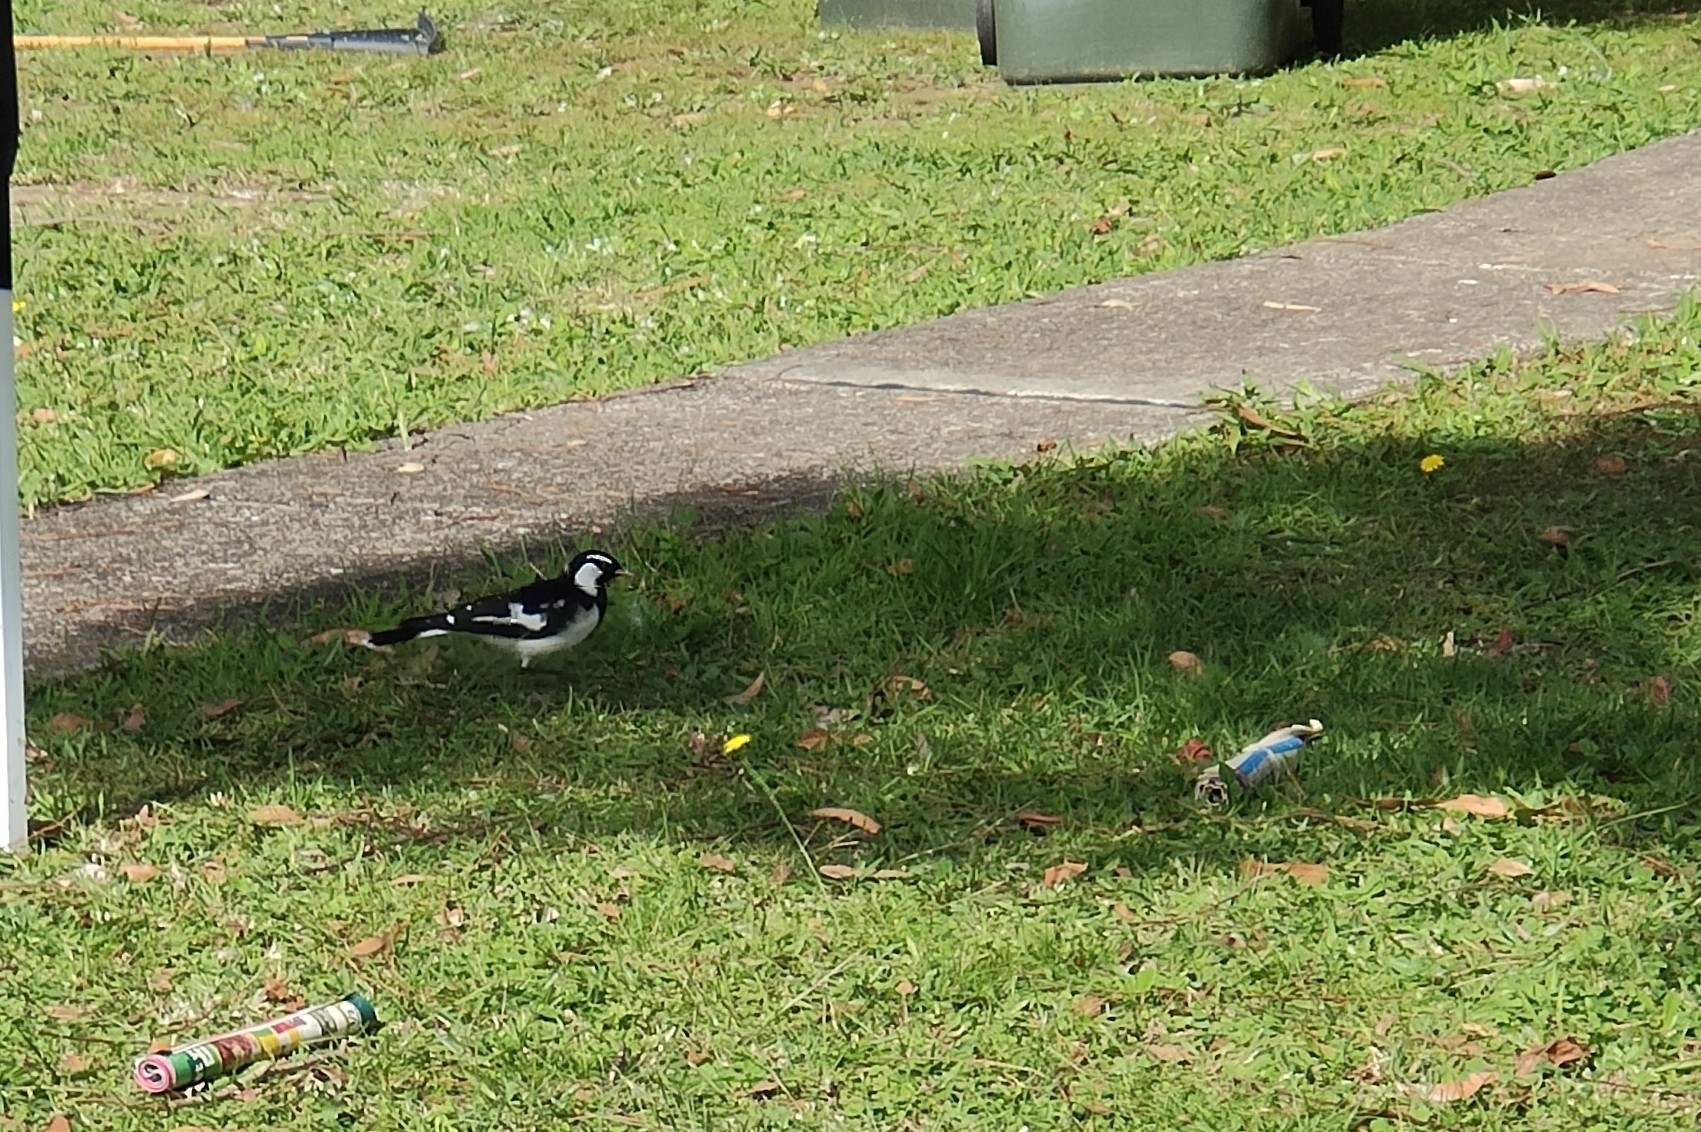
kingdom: Animalia
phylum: Chordata
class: Aves
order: Passeriformes
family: Monarchidae
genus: Grallina
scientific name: Grallina cyanoleuca
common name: Magpie-lark
